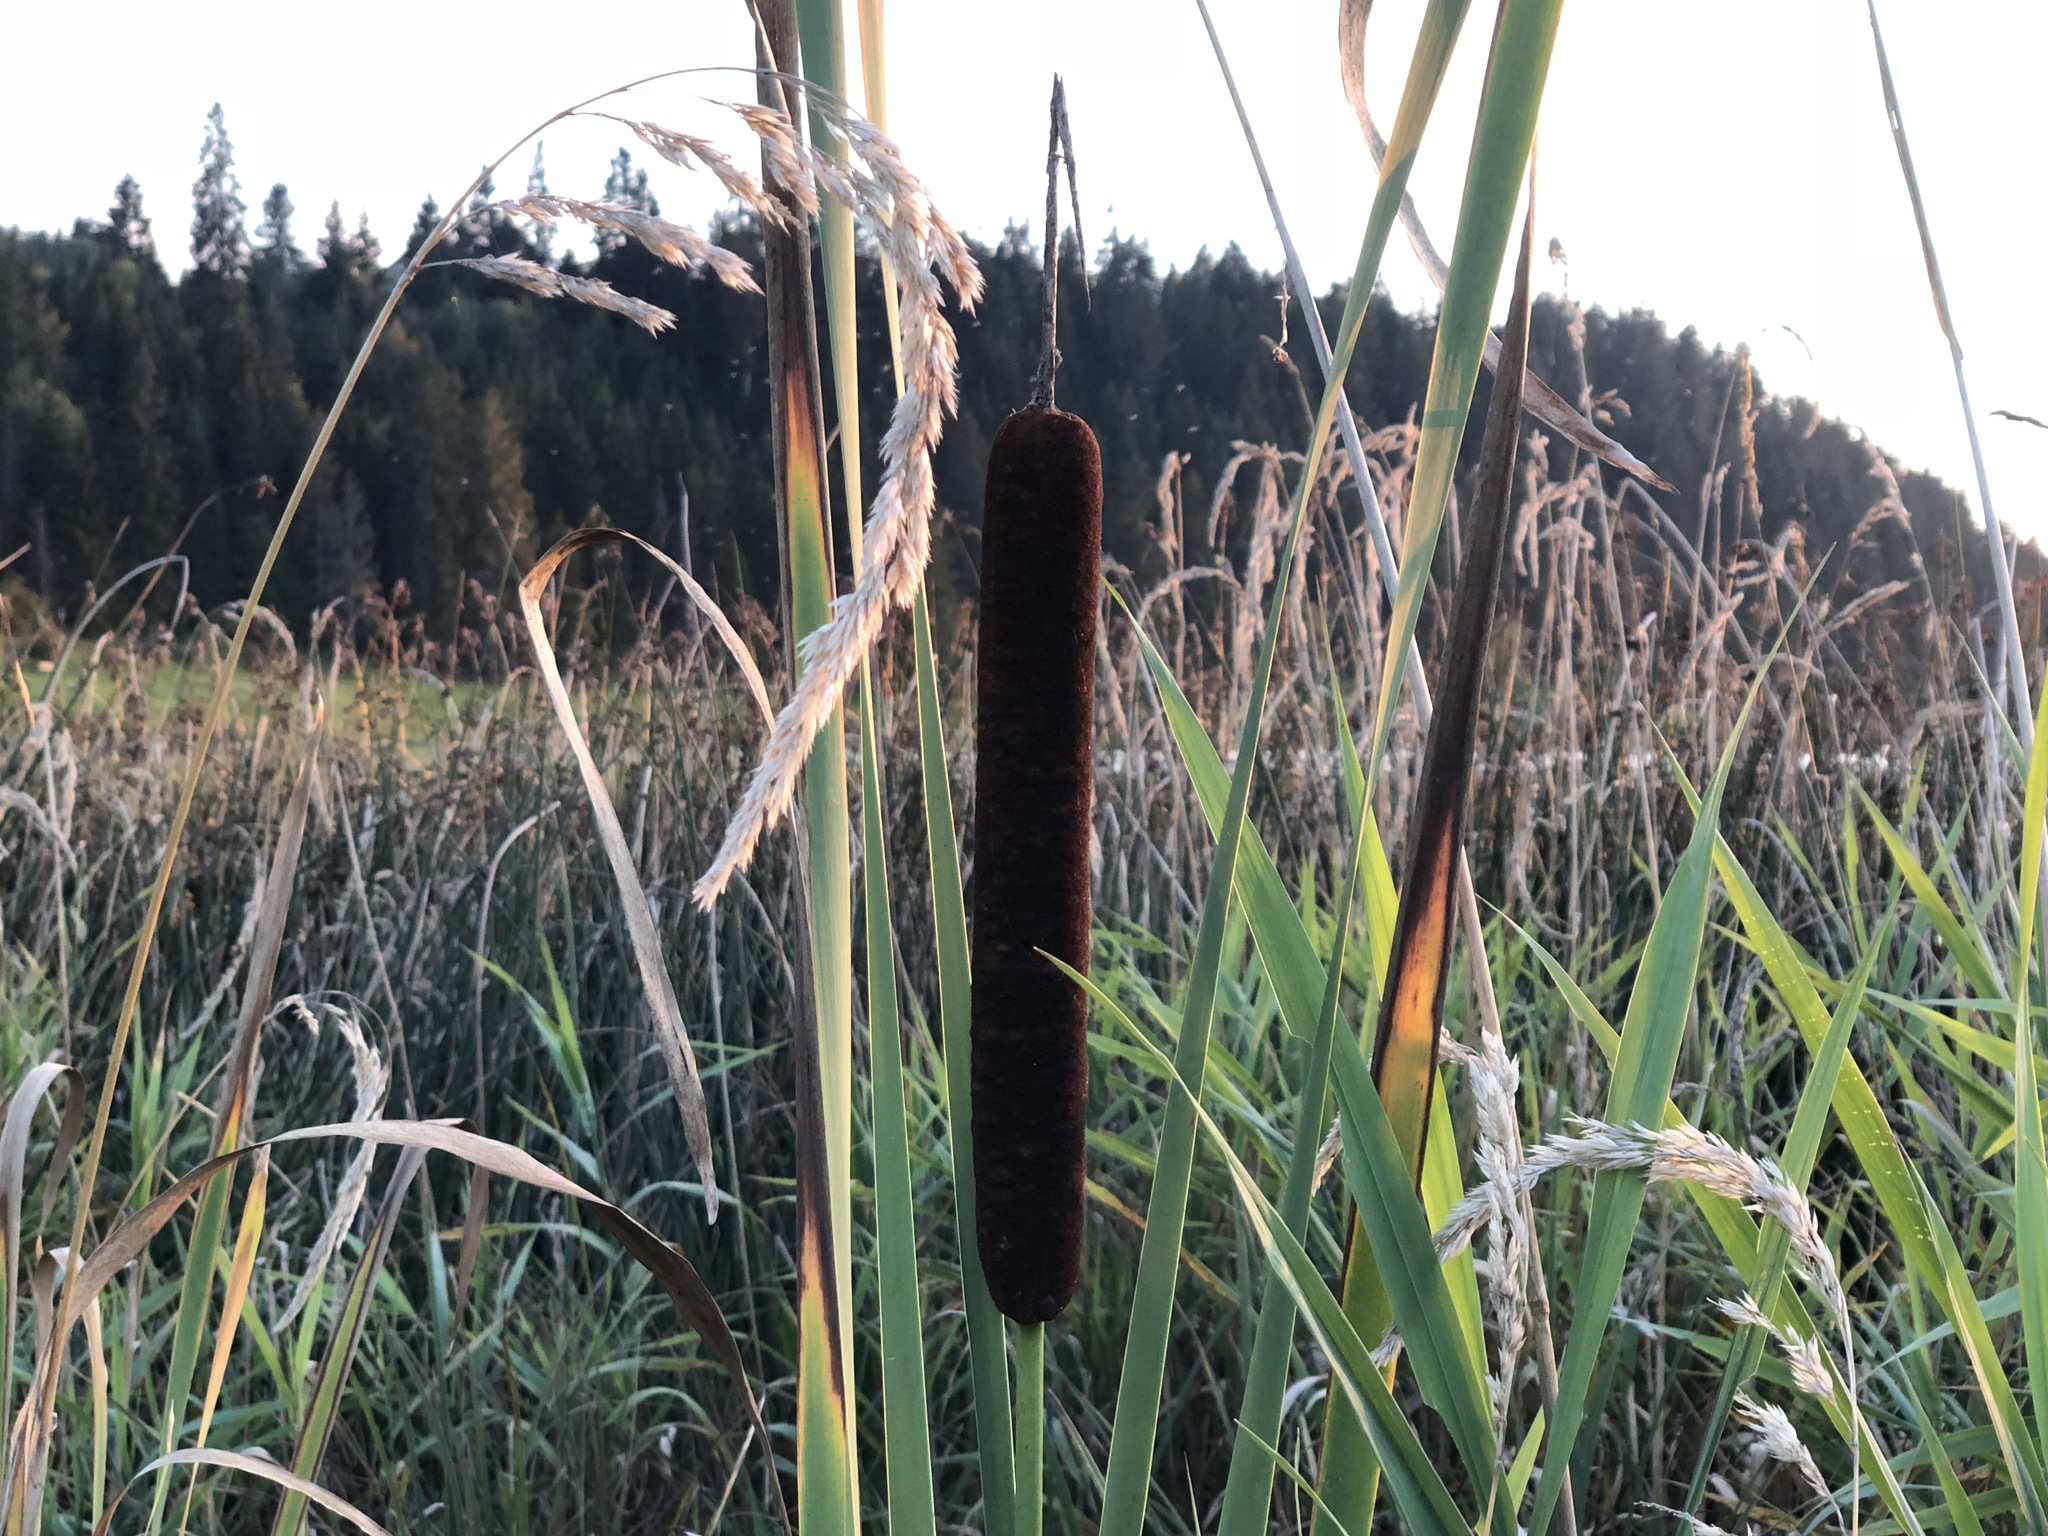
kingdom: Plantae
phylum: Tracheophyta
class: Liliopsida
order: Poales
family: Typhaceae
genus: Typha
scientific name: Typha latifolia
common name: Broadleaf cattail
